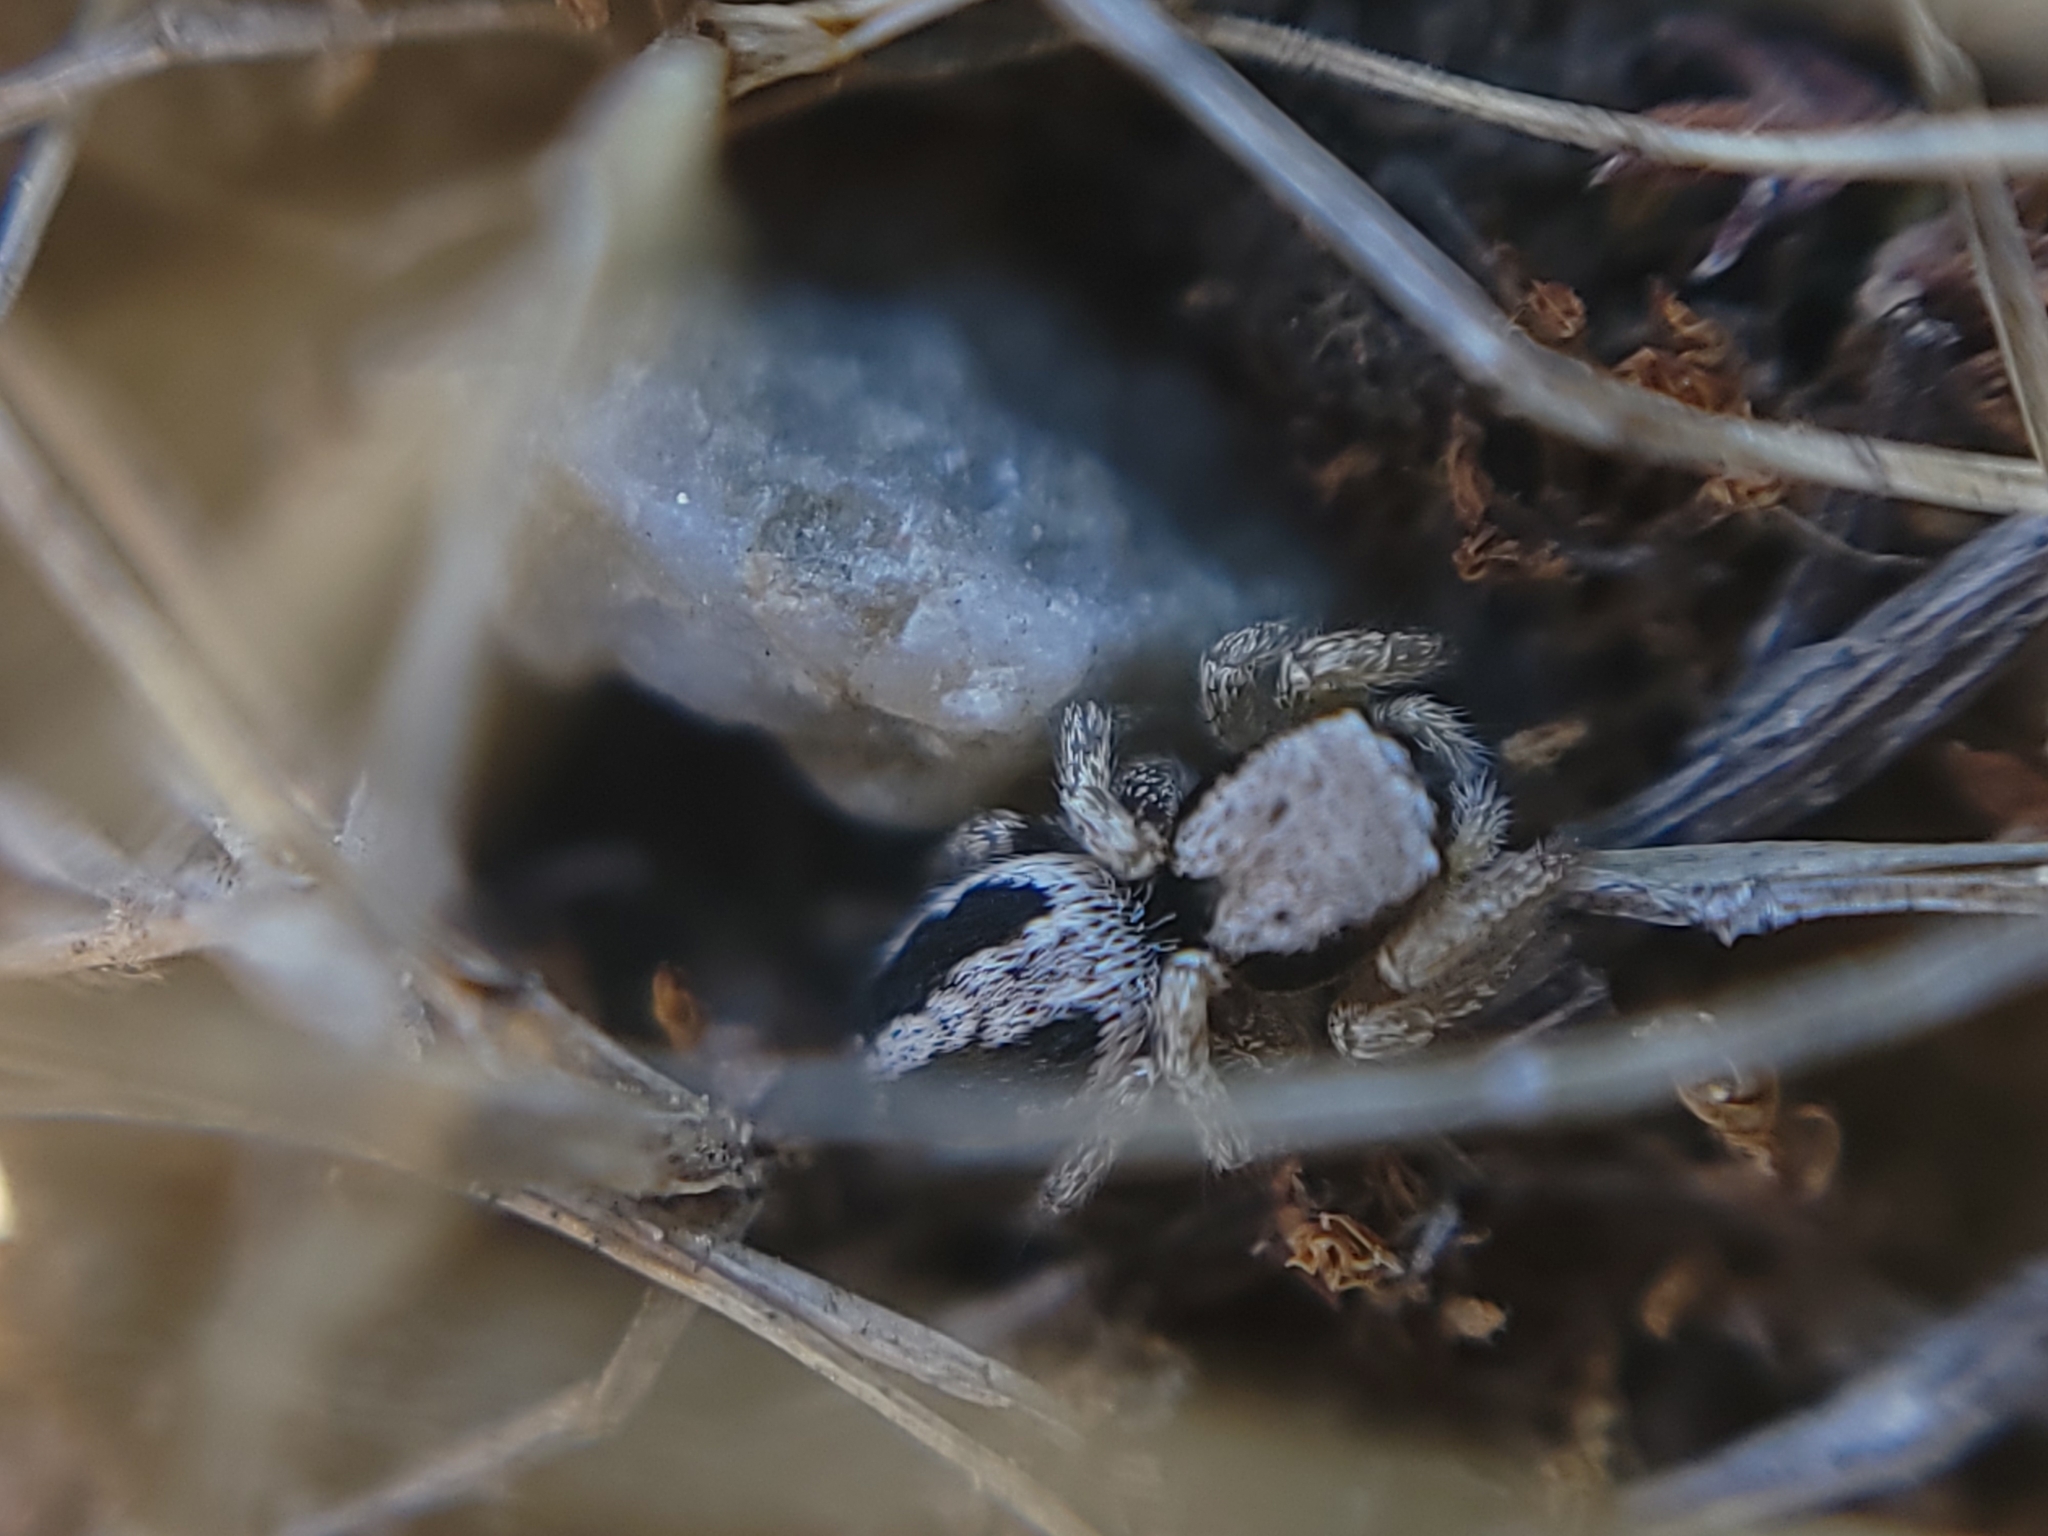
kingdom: Animalia
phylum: Arthropoda
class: Arachnida
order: Araneae
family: Salticidae
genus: Habronattus
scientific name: Habronattus pyrrithrix
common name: Jumping spider
